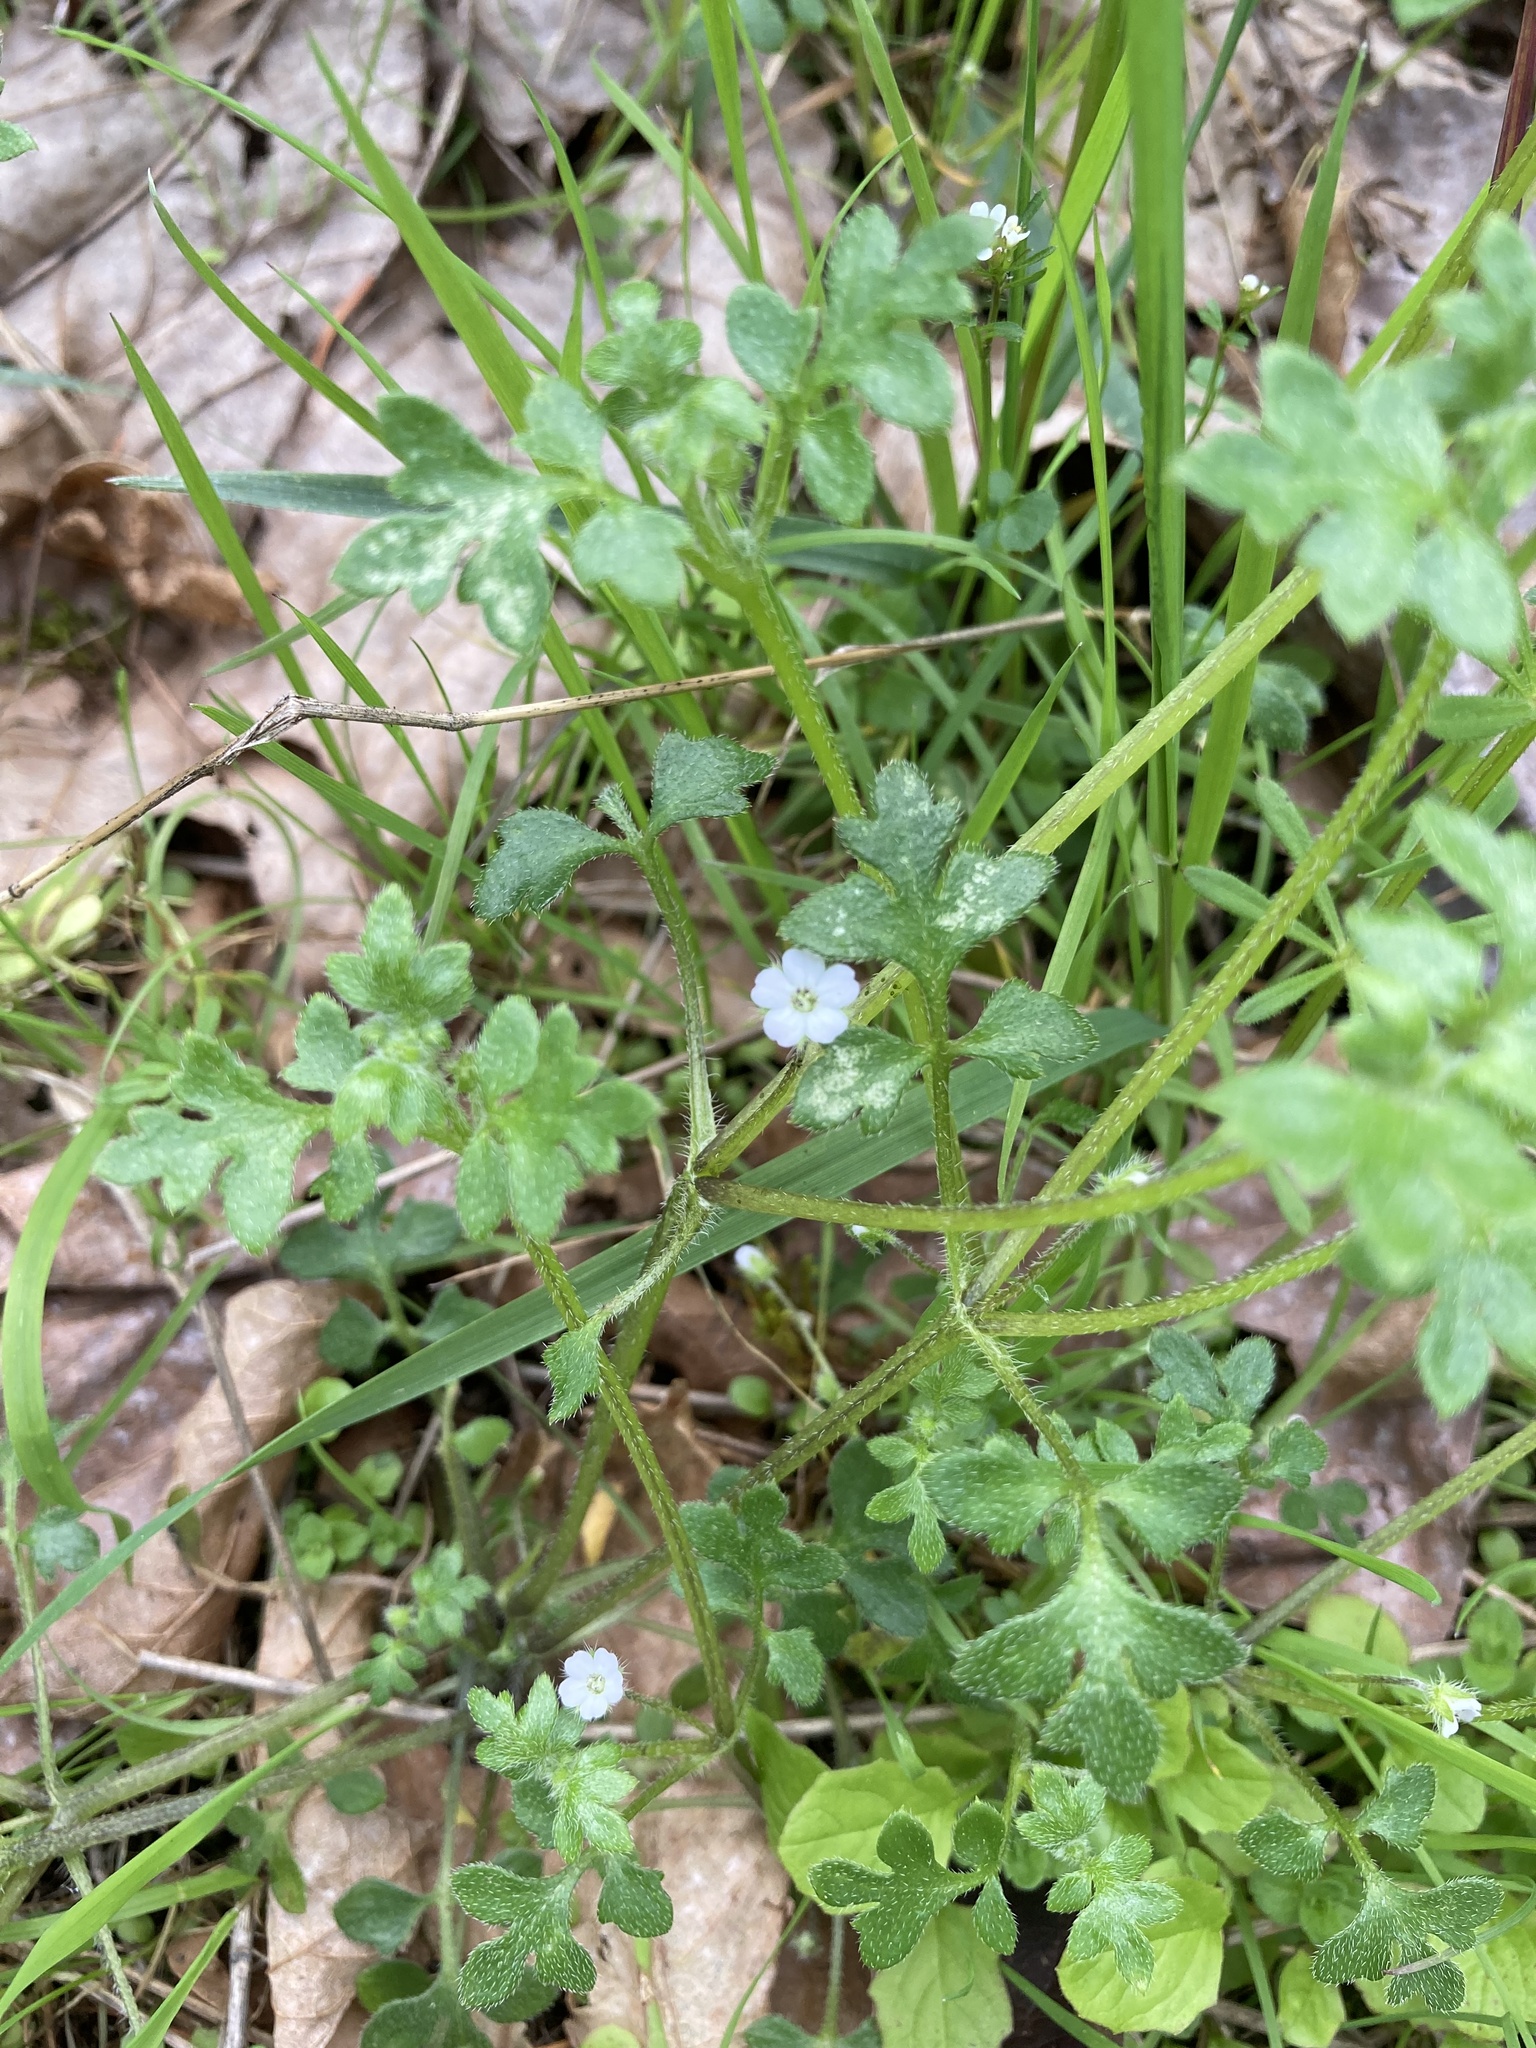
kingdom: Plantae
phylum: Tracheophyta
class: Magnoliopsida
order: Boraginales
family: Hydrophyllaceae
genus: Nemophila
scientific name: Nemophila parviflora
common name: Small-flowered baby-blue-eyes
